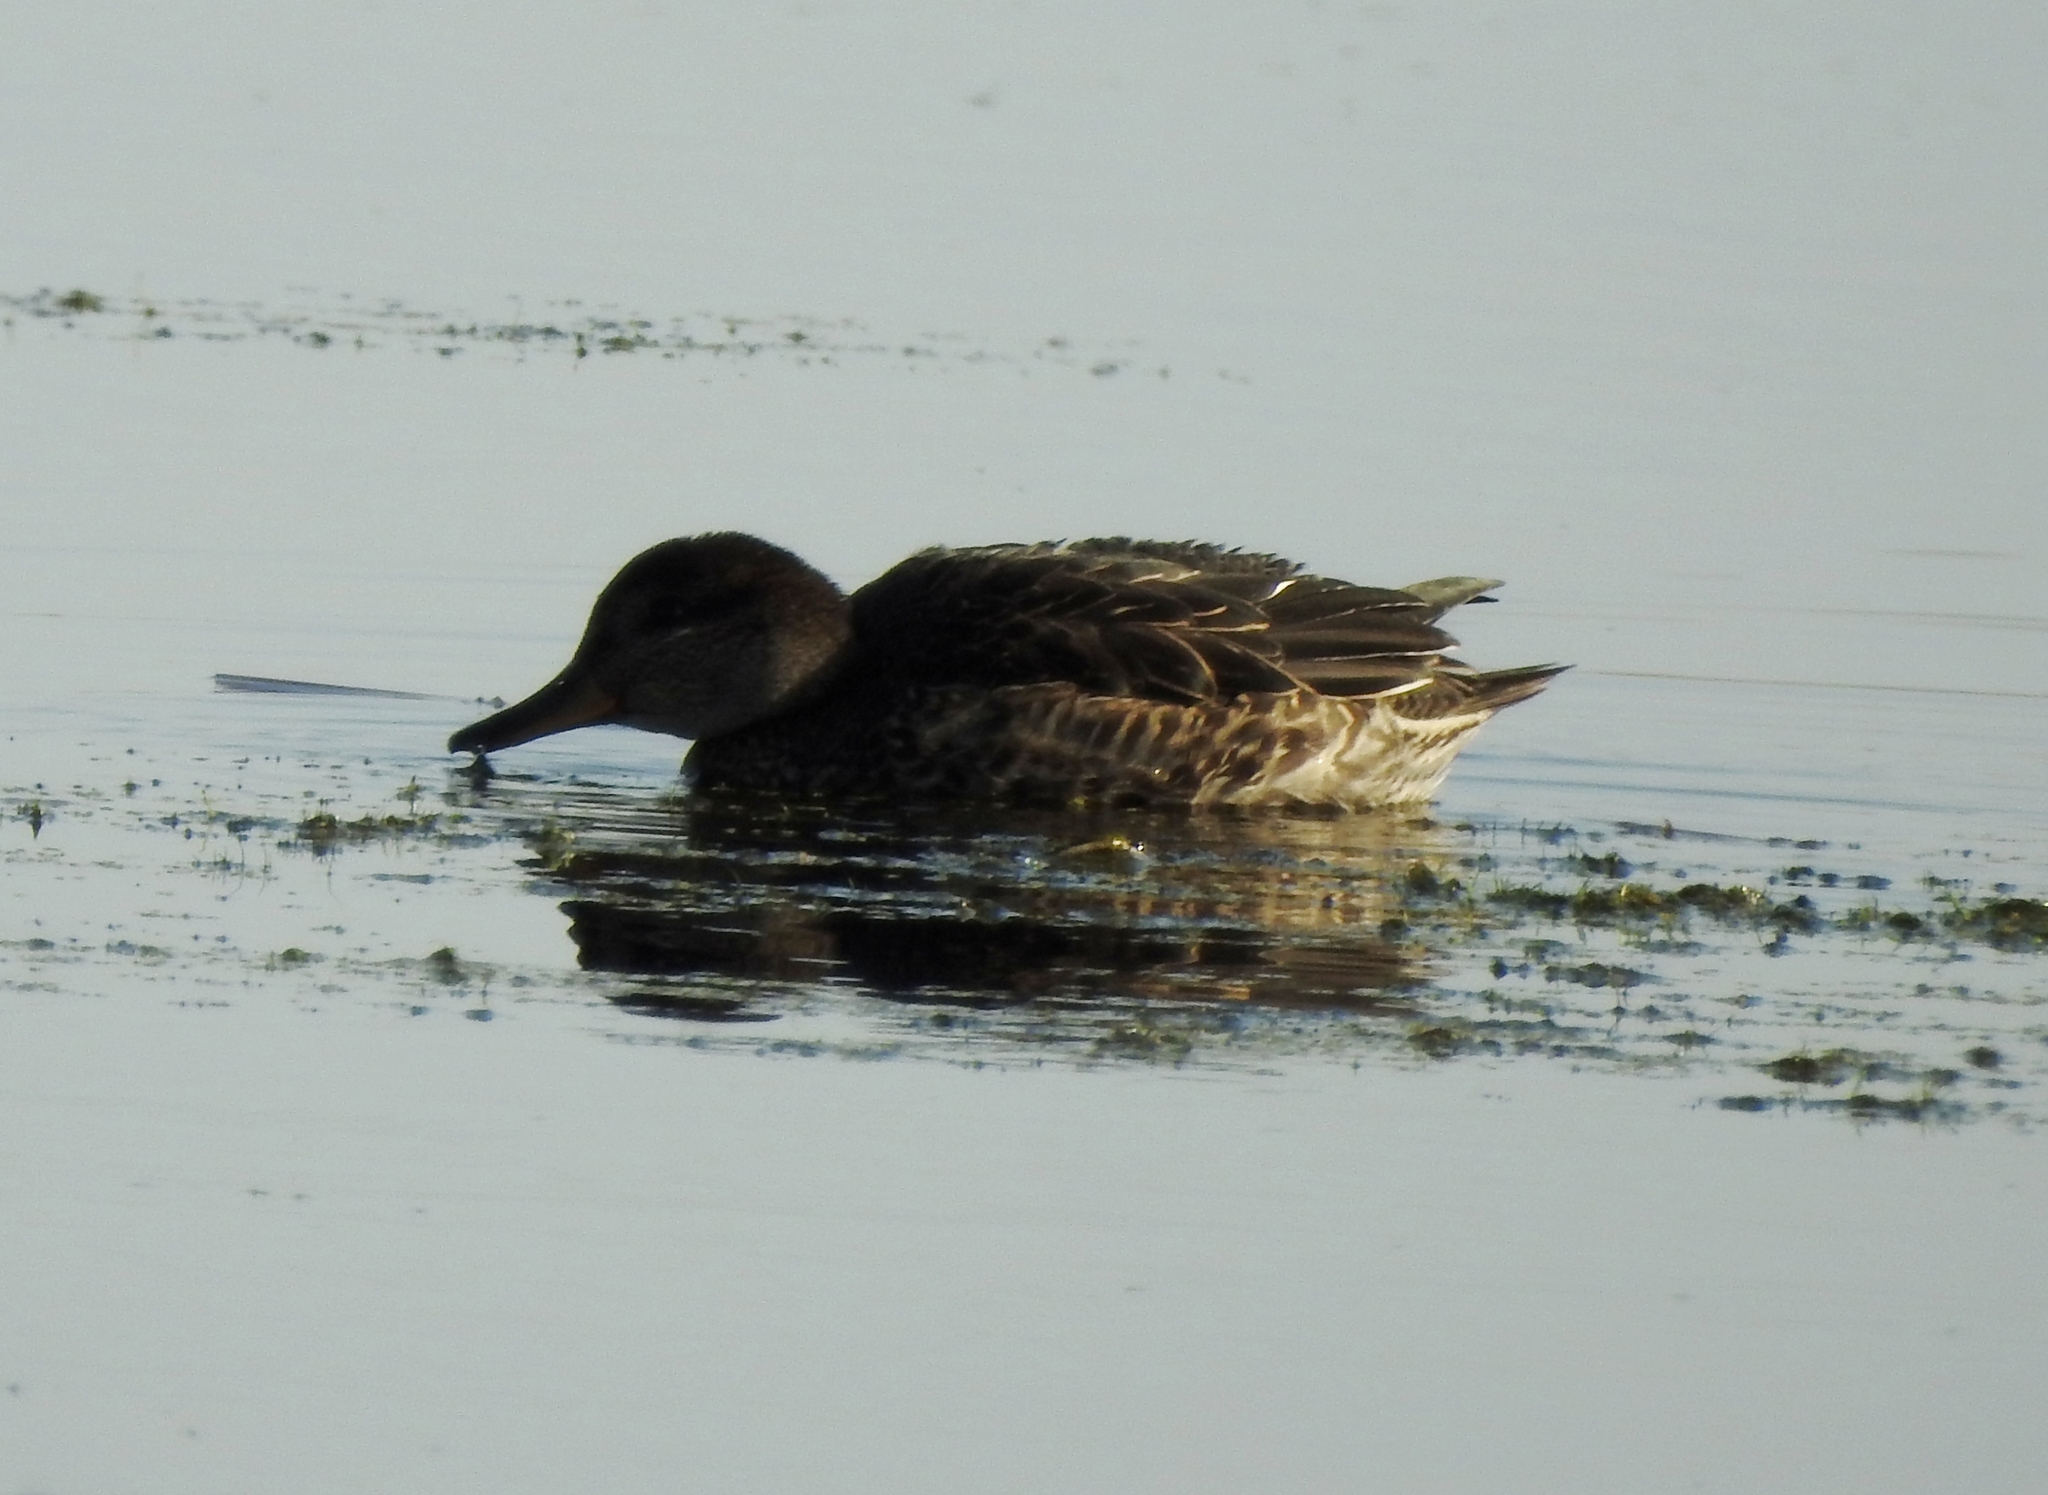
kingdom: Animalia
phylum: Chordata
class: Aves
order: Anseriformes
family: Anatidae
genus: Anas
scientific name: Anas crecca
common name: Eurasian teal
